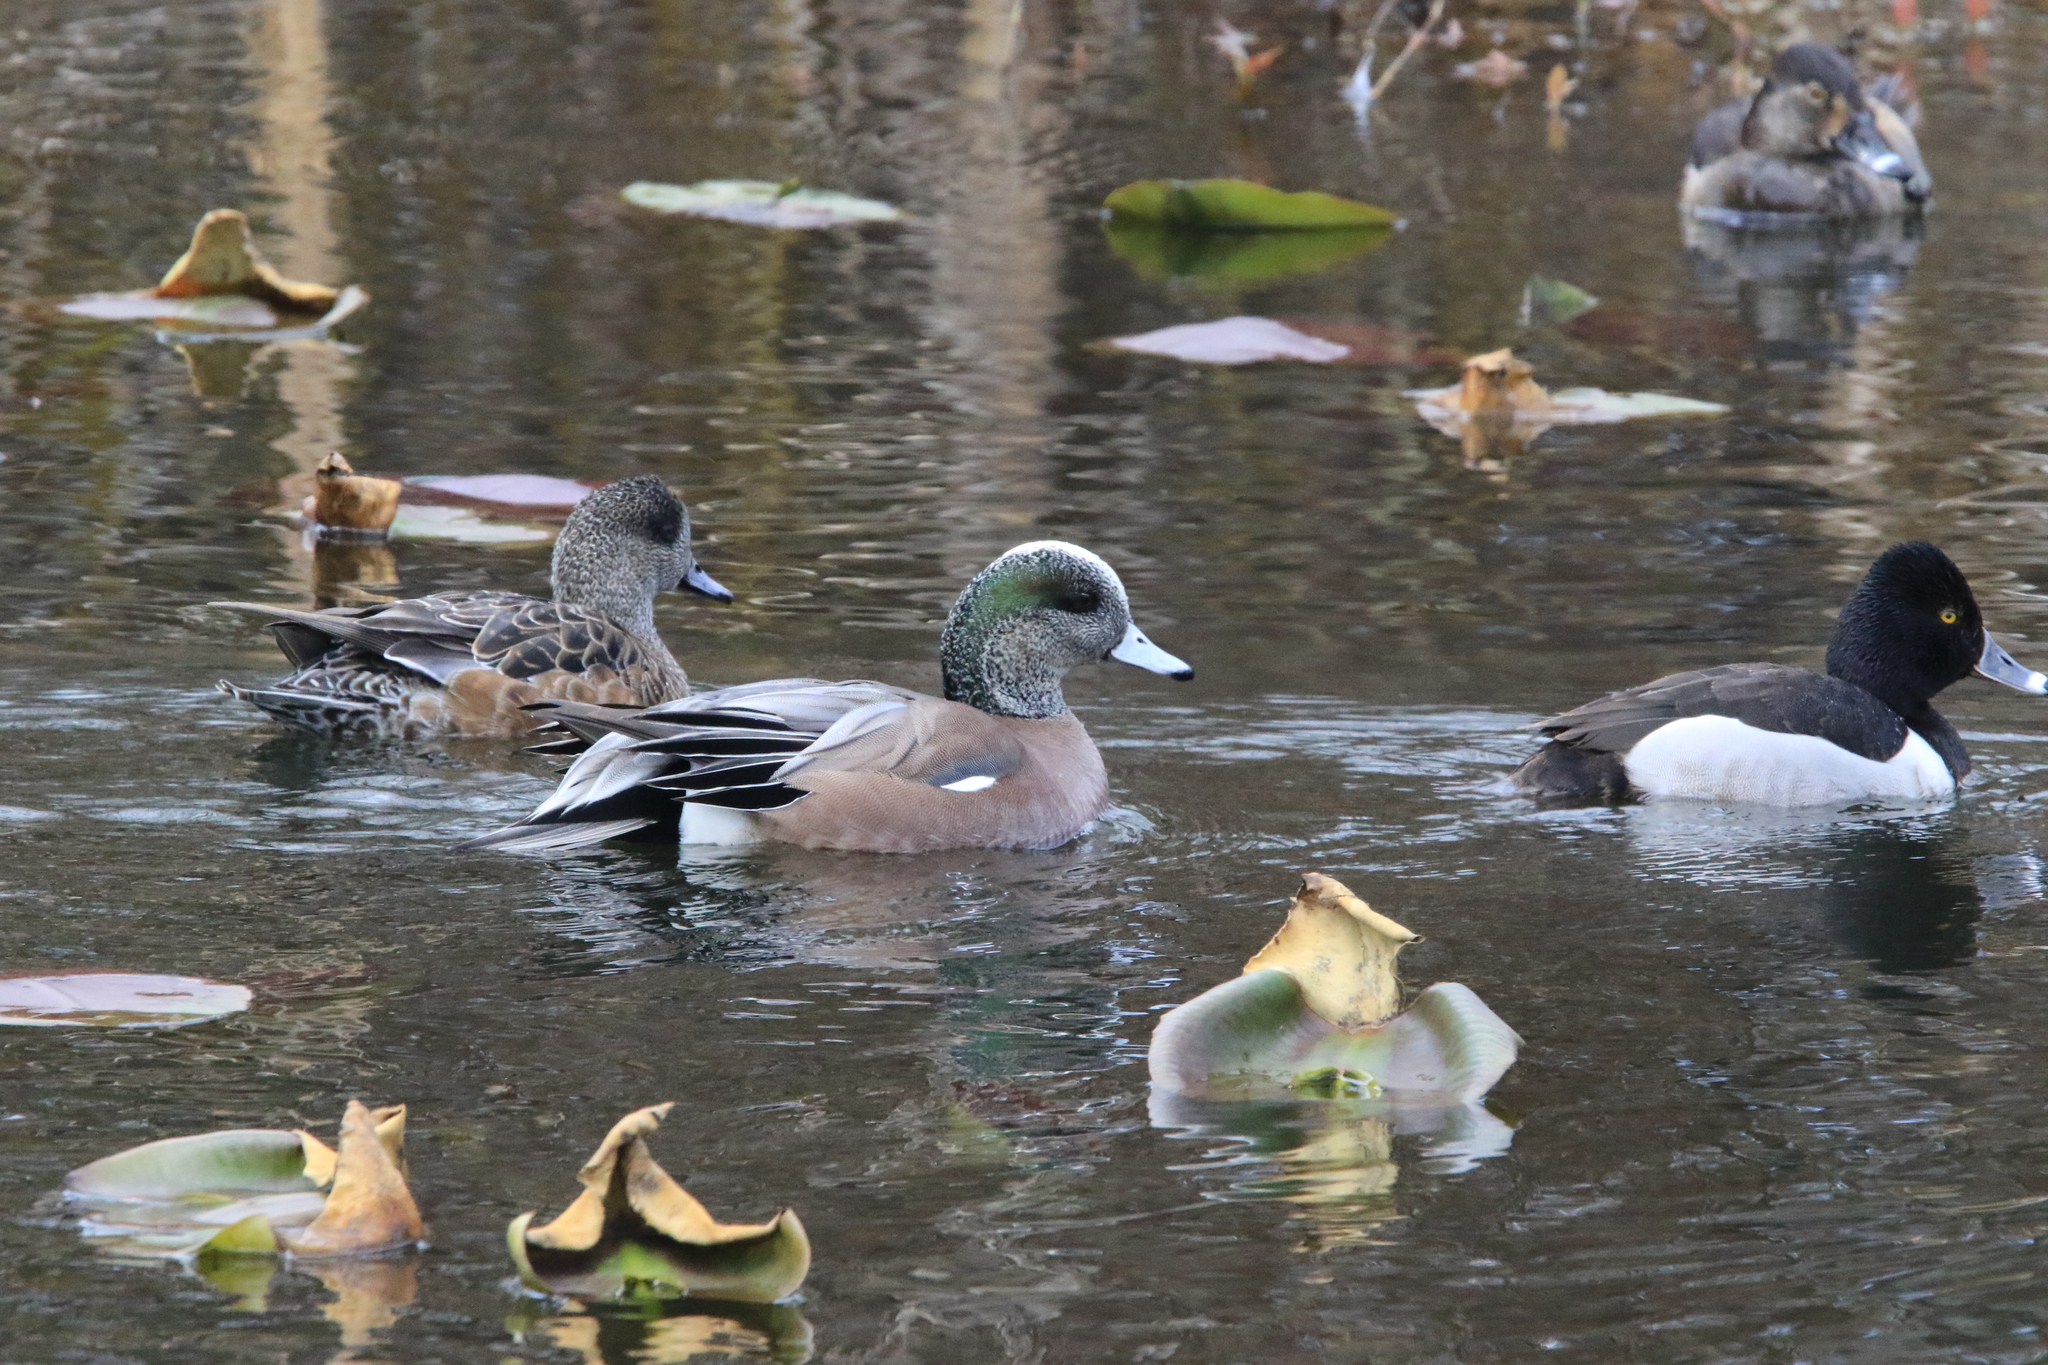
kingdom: Animalia
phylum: Chordata
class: Aves
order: Anseriformes
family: Anatidae
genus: Mareca
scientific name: Mareca americana
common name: American wigeon
